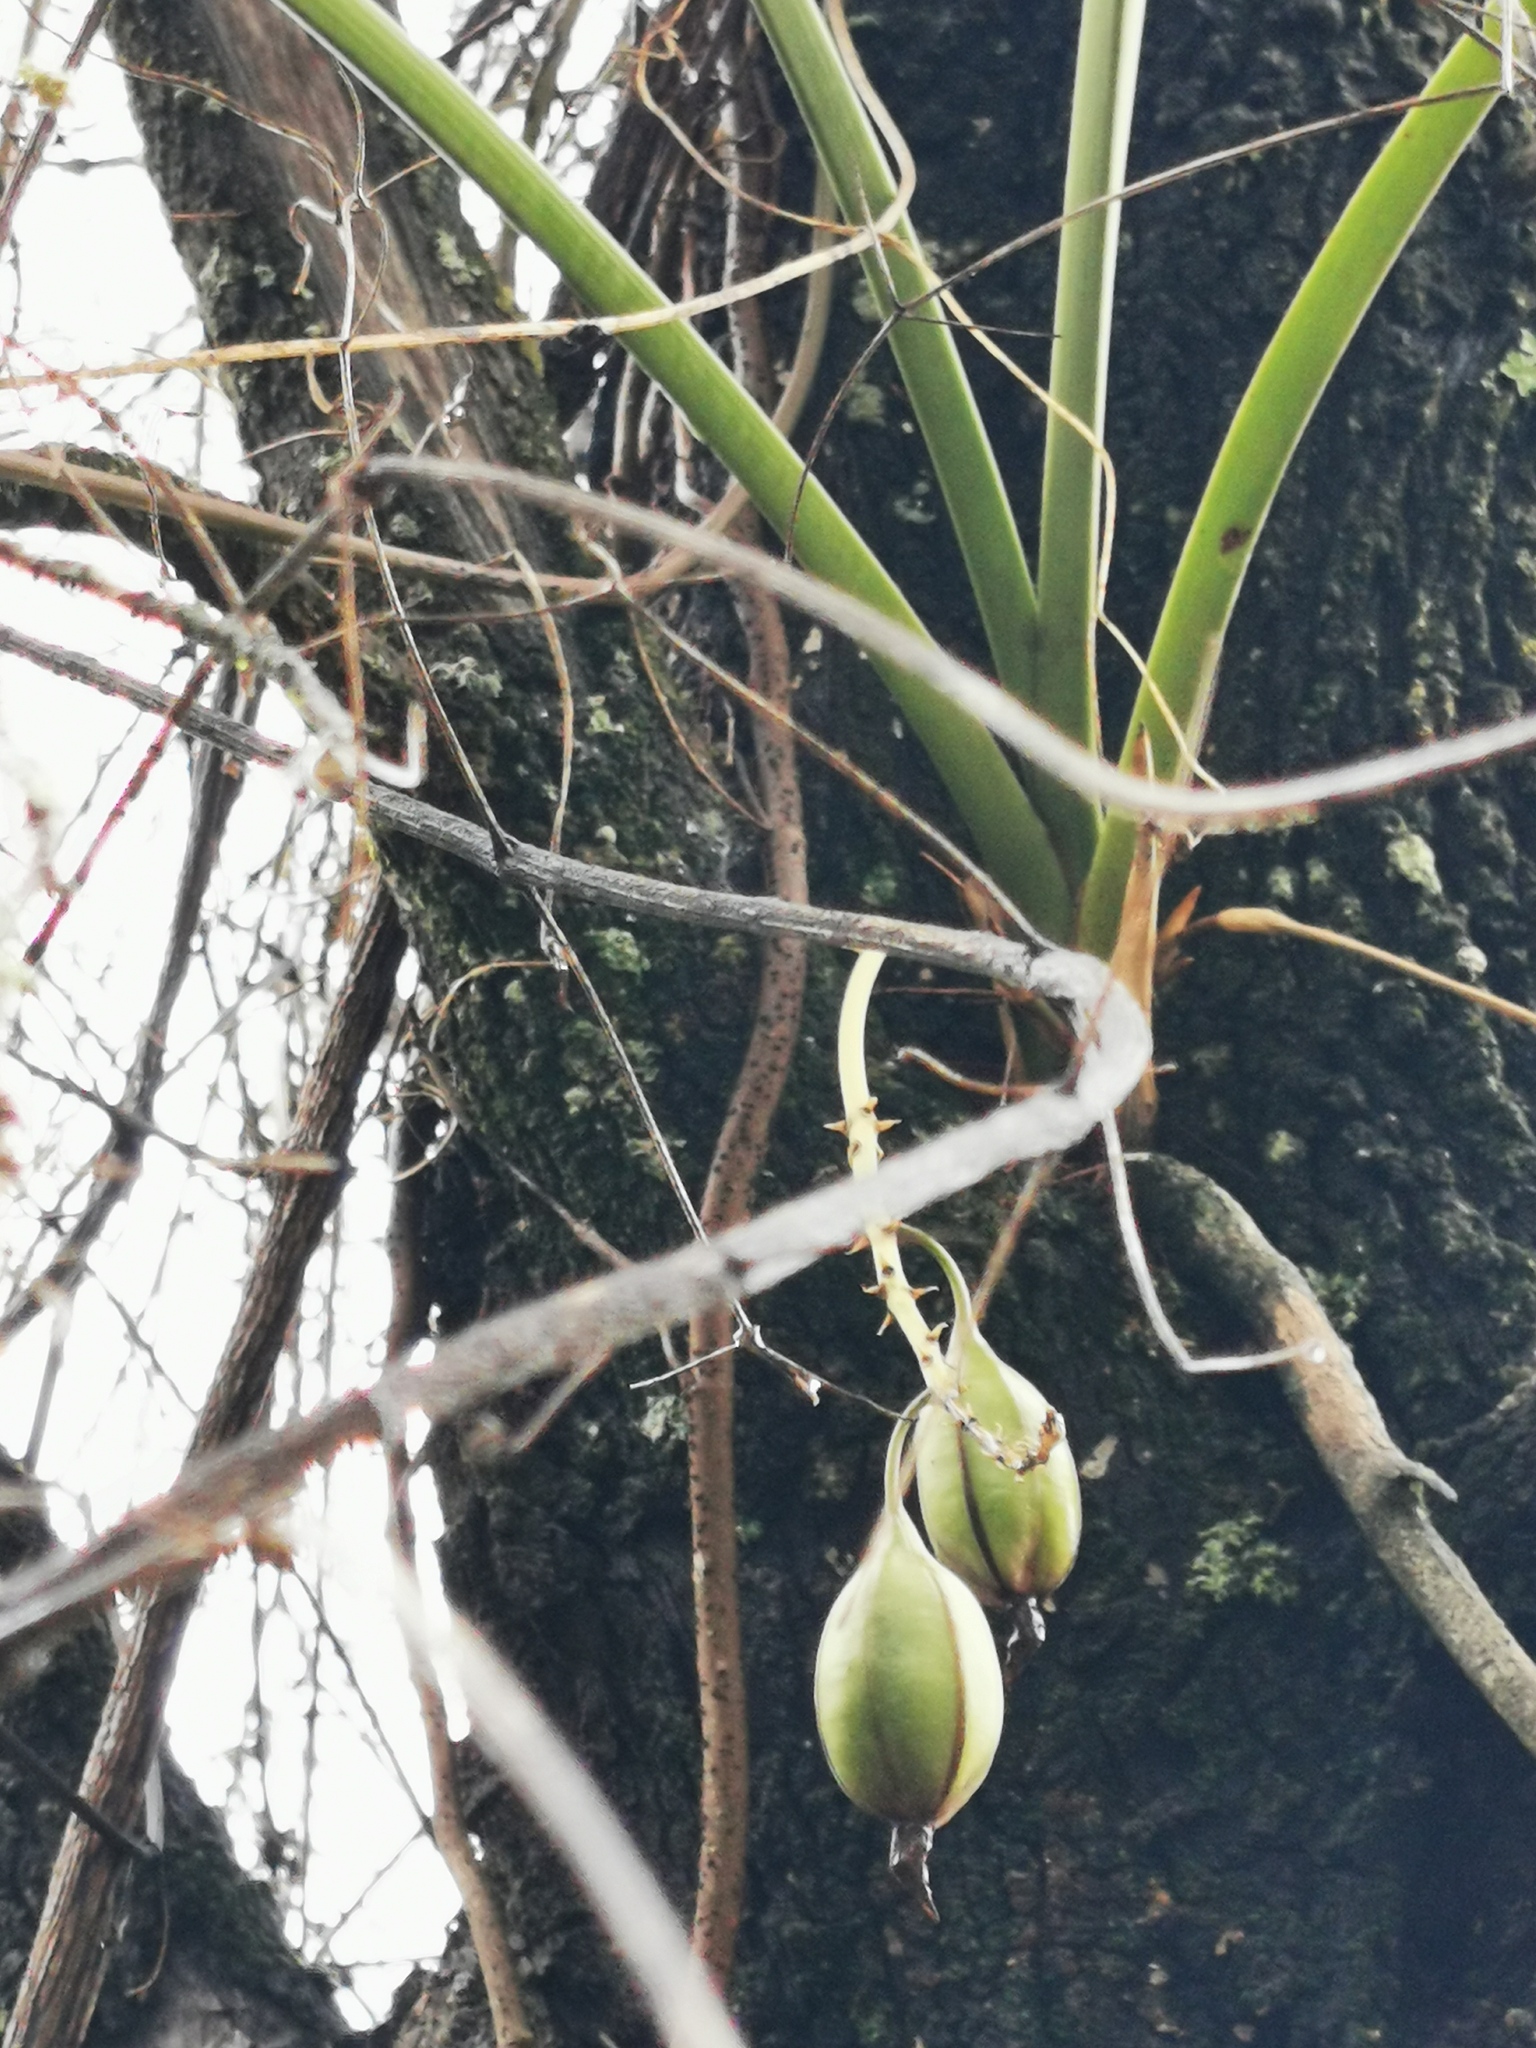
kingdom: Plantae
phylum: Tracheophyta
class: Liliopsida
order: Asparagales
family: Orchidaceae
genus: Cymbidium
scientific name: Cymbidium canaliculatum
